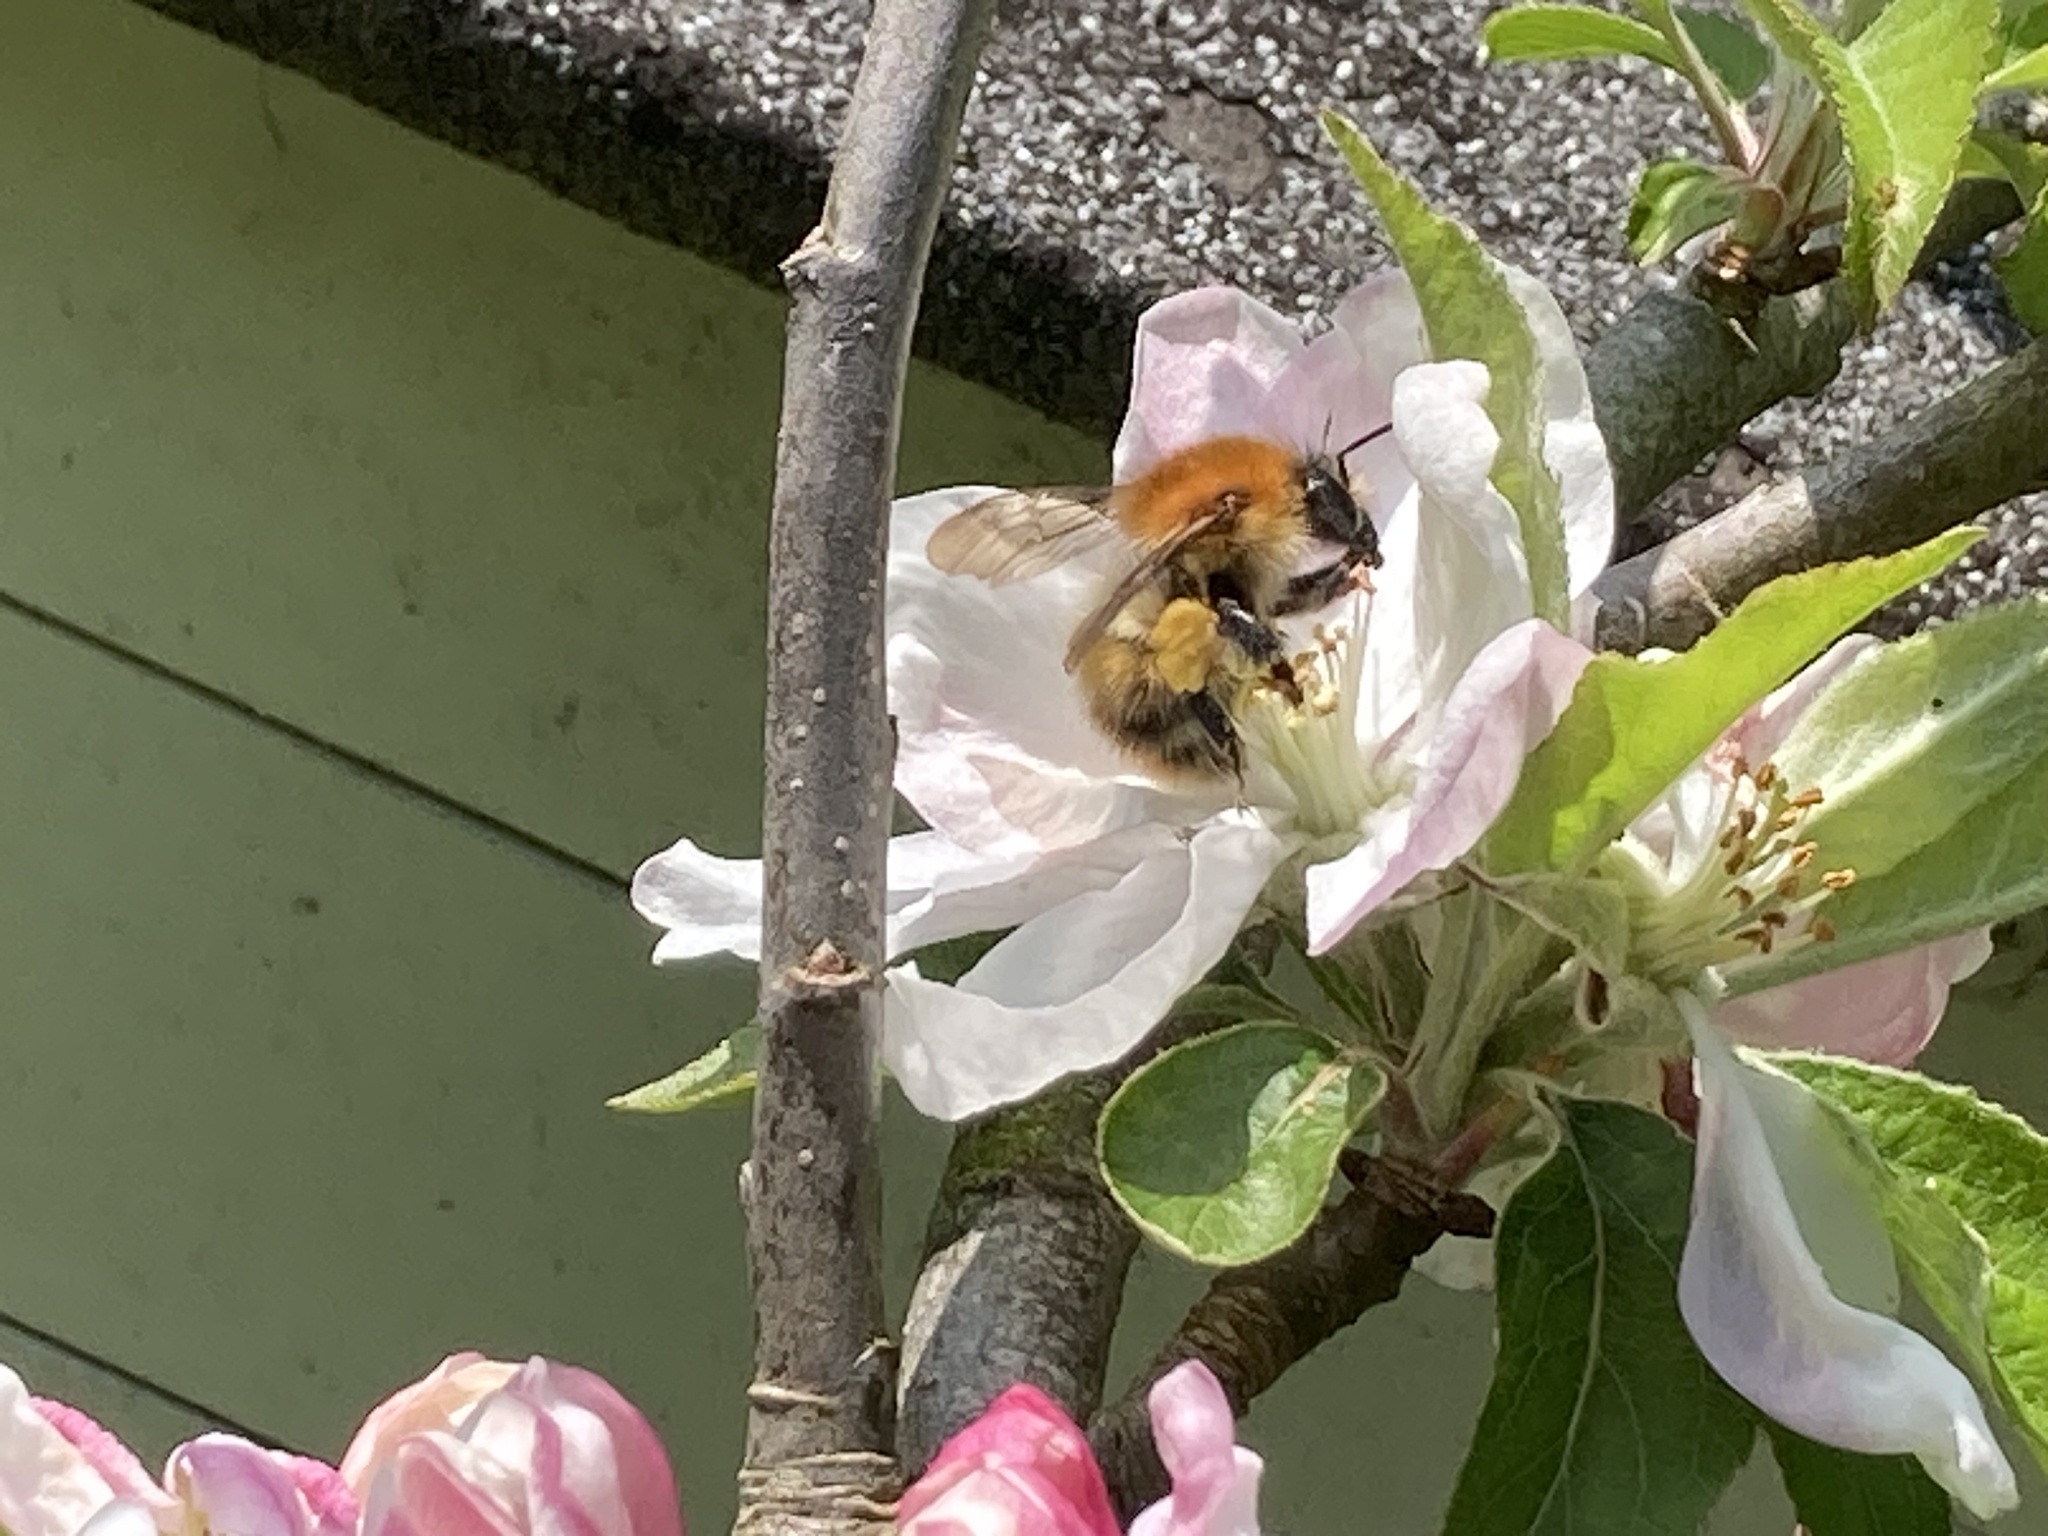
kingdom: Animalia
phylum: Arthropoda
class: Insecta
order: Hymenoptera
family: Apidae
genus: Bombus
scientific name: Bombus pascuorum
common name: Common carder bee
